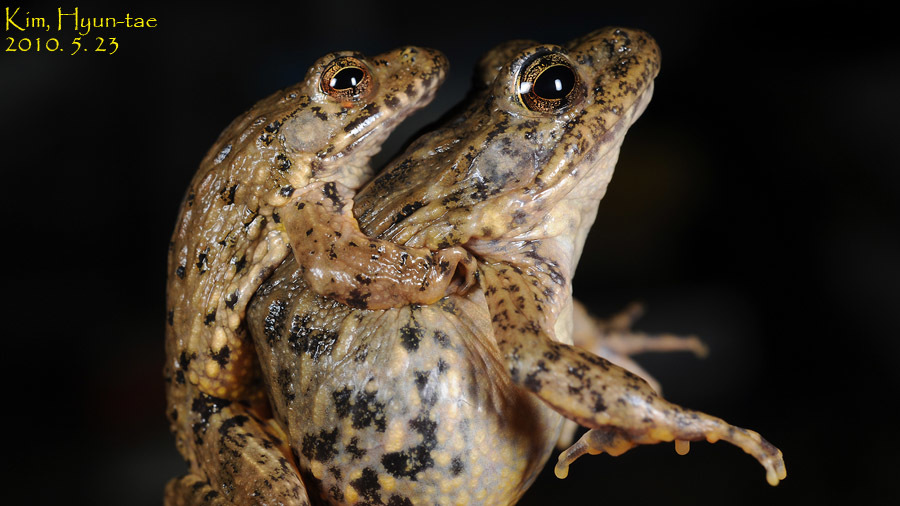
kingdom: Animalia
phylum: Chordata
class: Amphibia
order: Anura
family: Ranidae
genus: Glandirana
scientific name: Glandirana emeljanovi
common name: Northeast china rough-skinned frog
